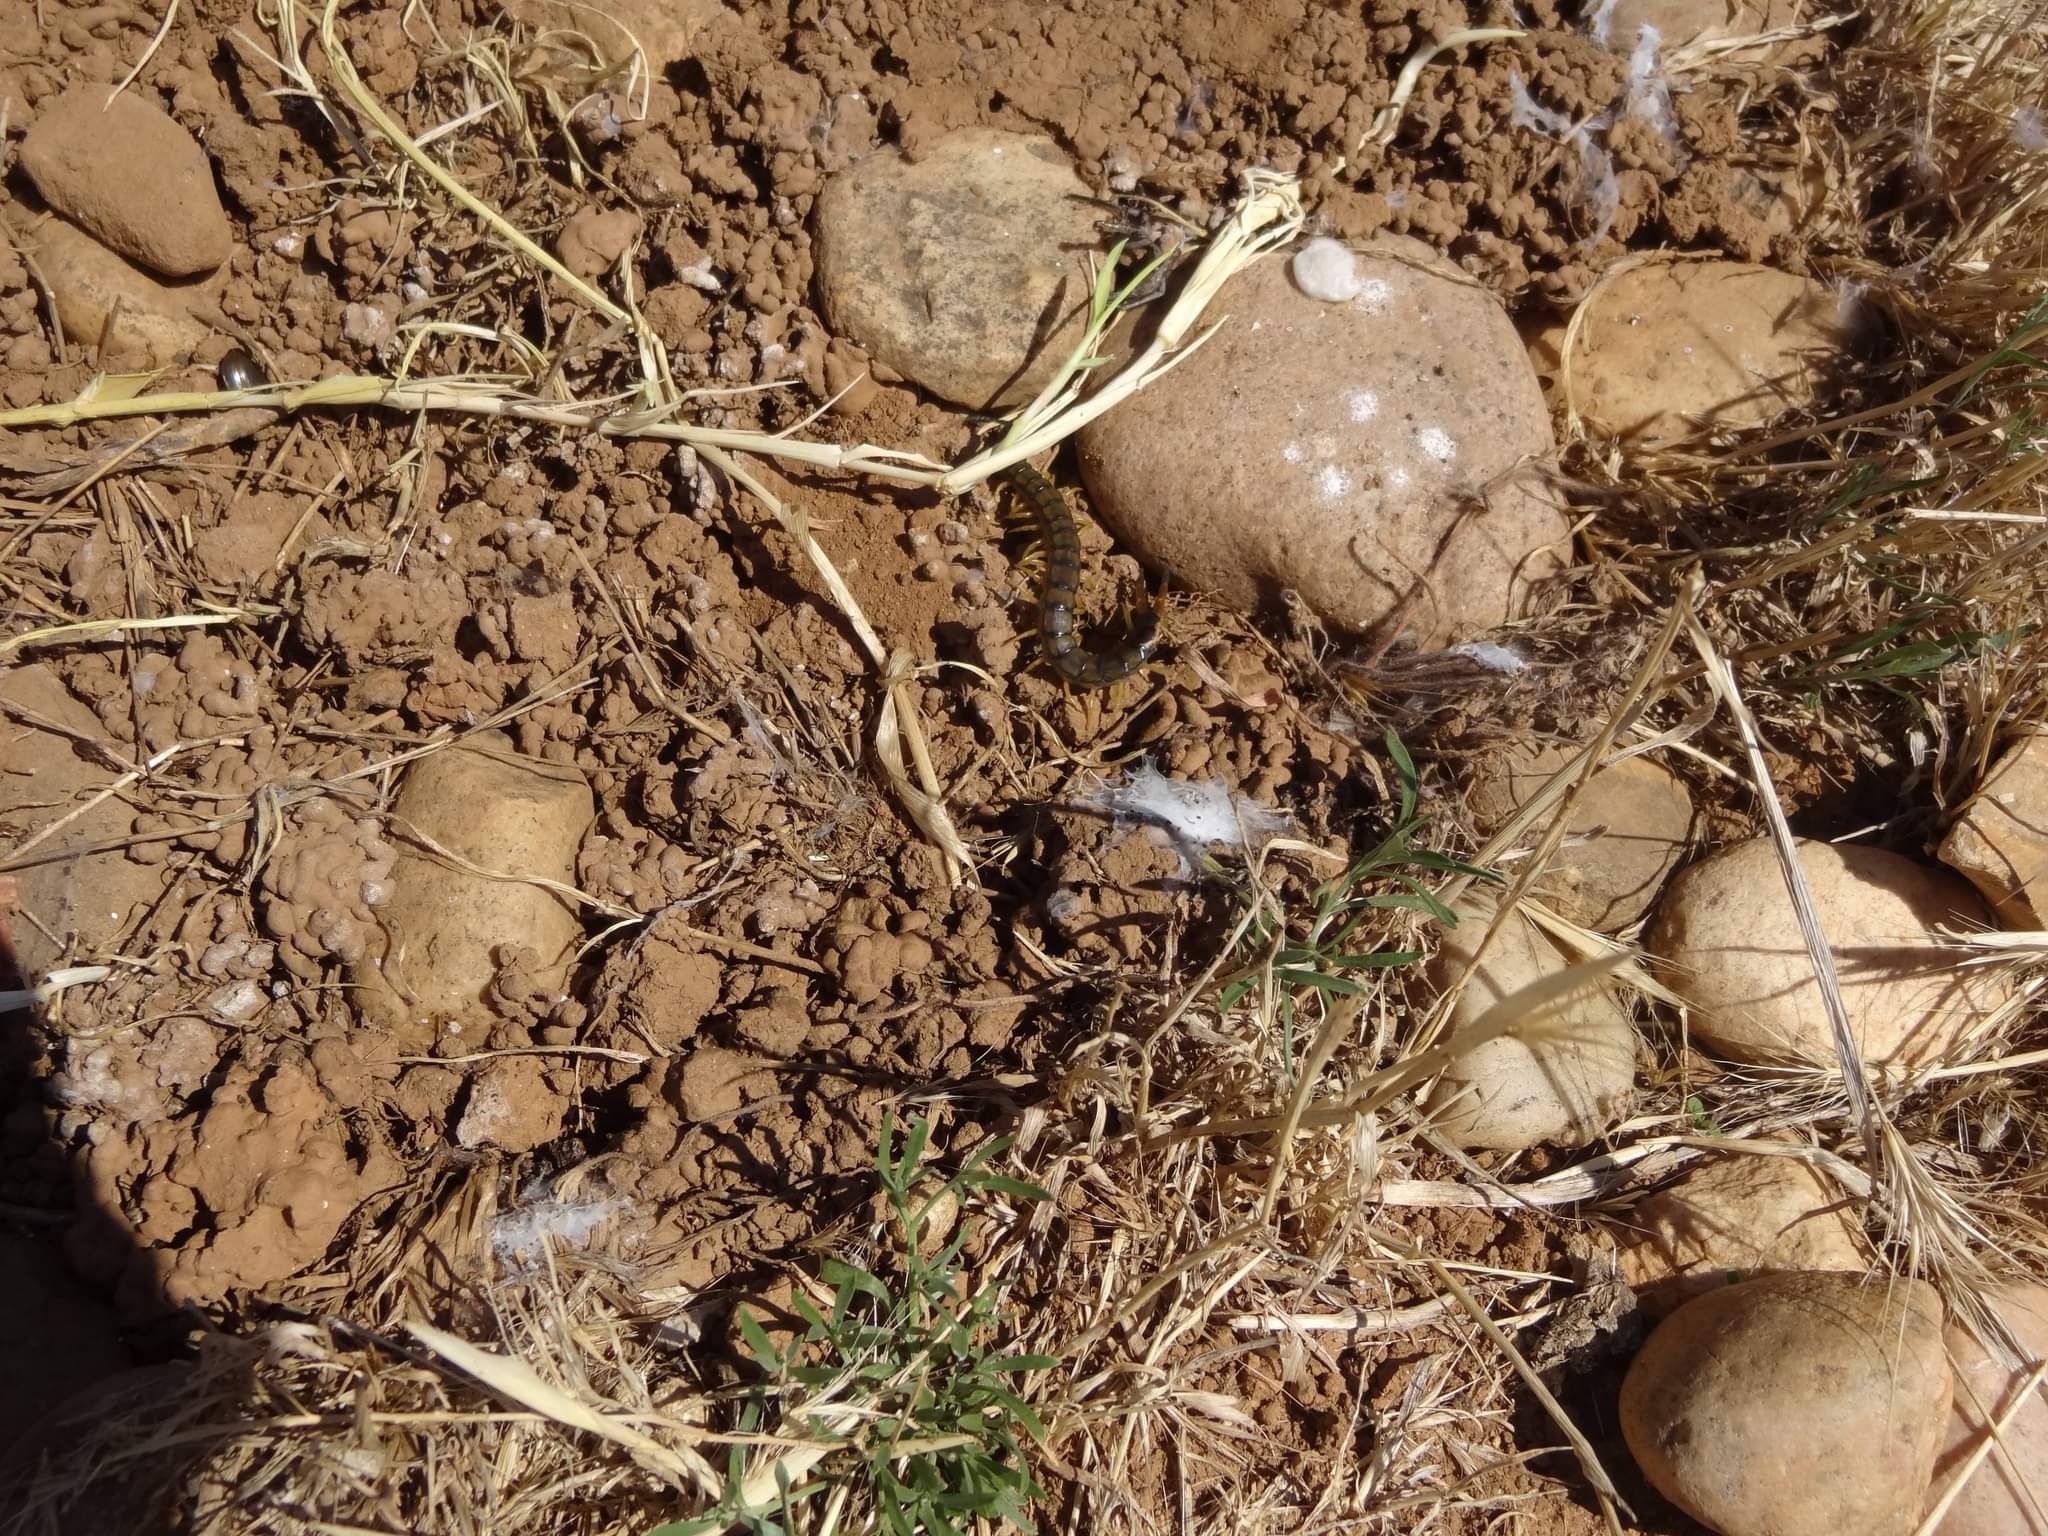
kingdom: Animalia
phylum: Arthropoda
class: Chilopoda
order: Scolopendromorpha
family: Scolopendridae
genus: Scolopendra
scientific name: Scolopendra cingulata
